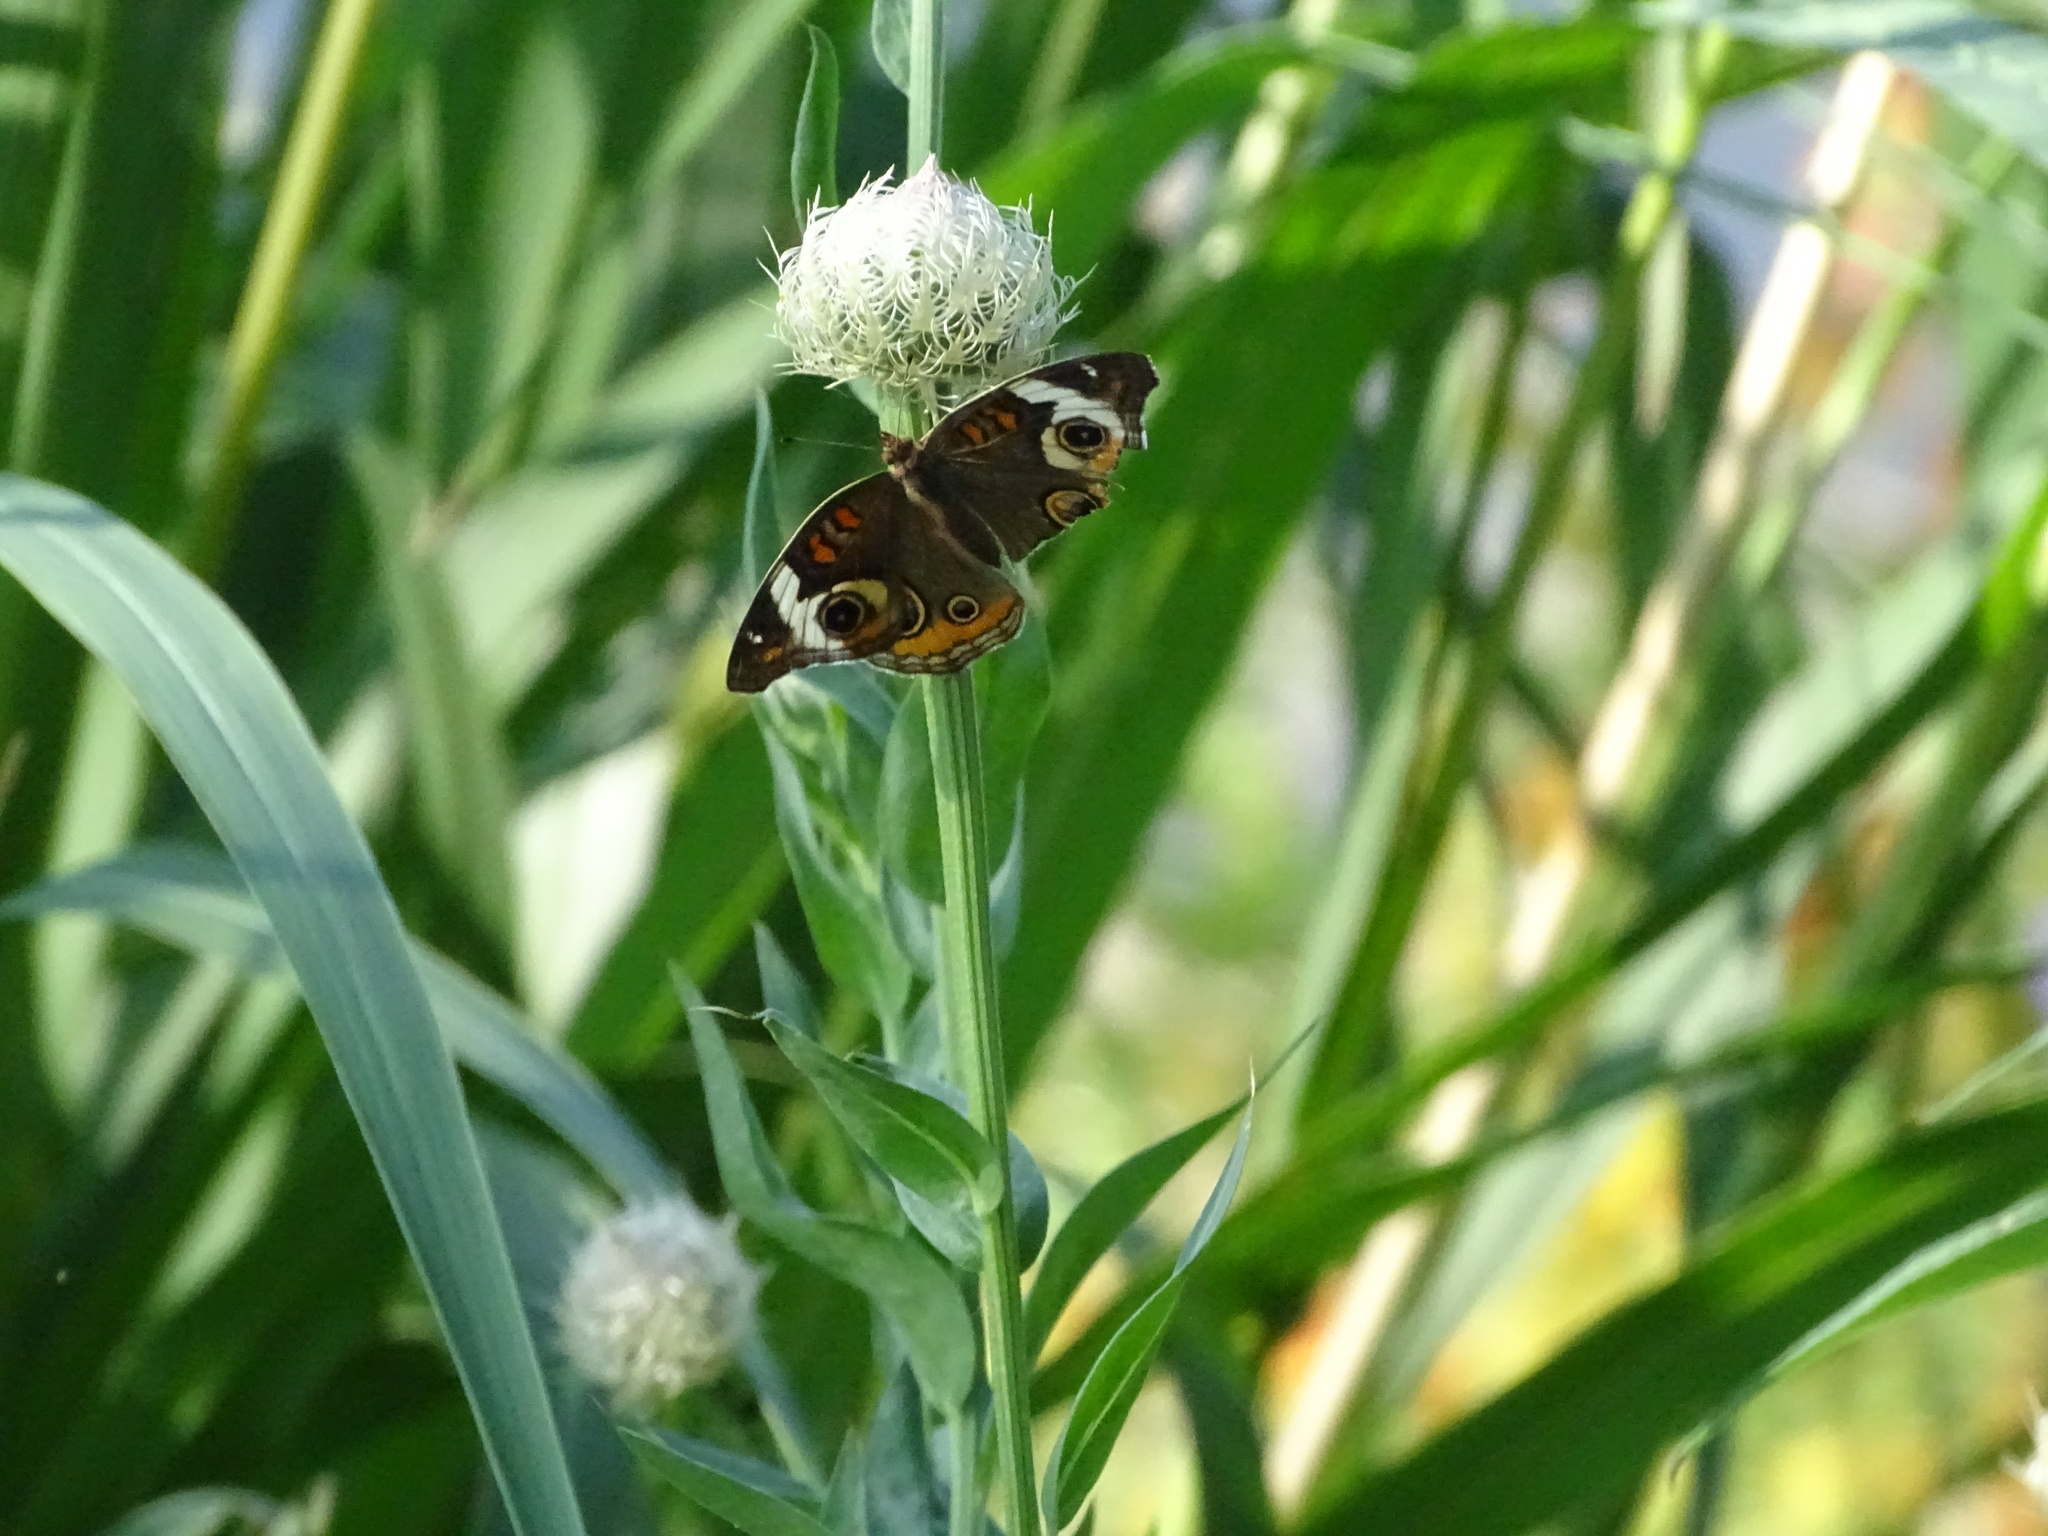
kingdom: Animalia
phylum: Arthropoda
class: Insecta
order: Lepidoptera
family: Nymphalidae
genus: Junonia
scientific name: Junonia coenia
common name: Common buckeye
